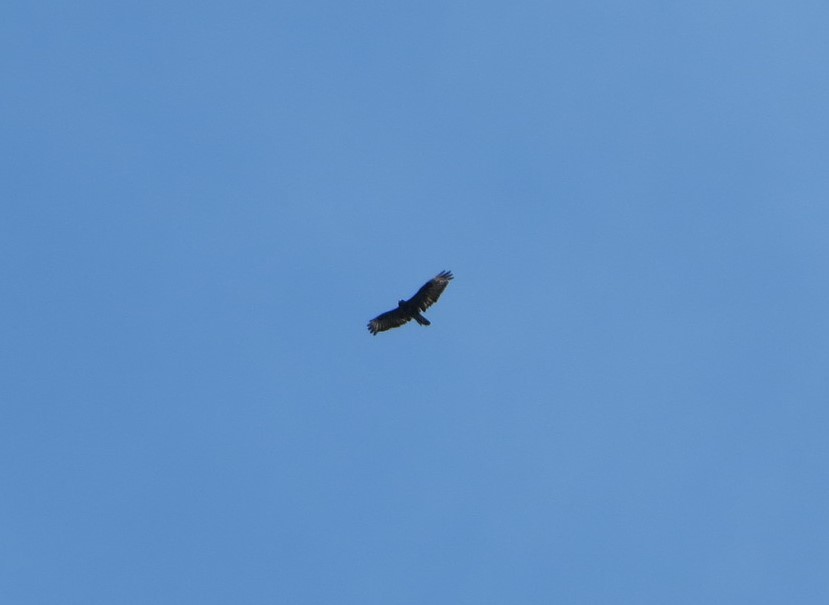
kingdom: Animalia
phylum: Chordata
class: Aves
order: Accipitriformes
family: Accipitridae
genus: Buteo
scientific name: Buteo buteo
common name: Common buzzard
